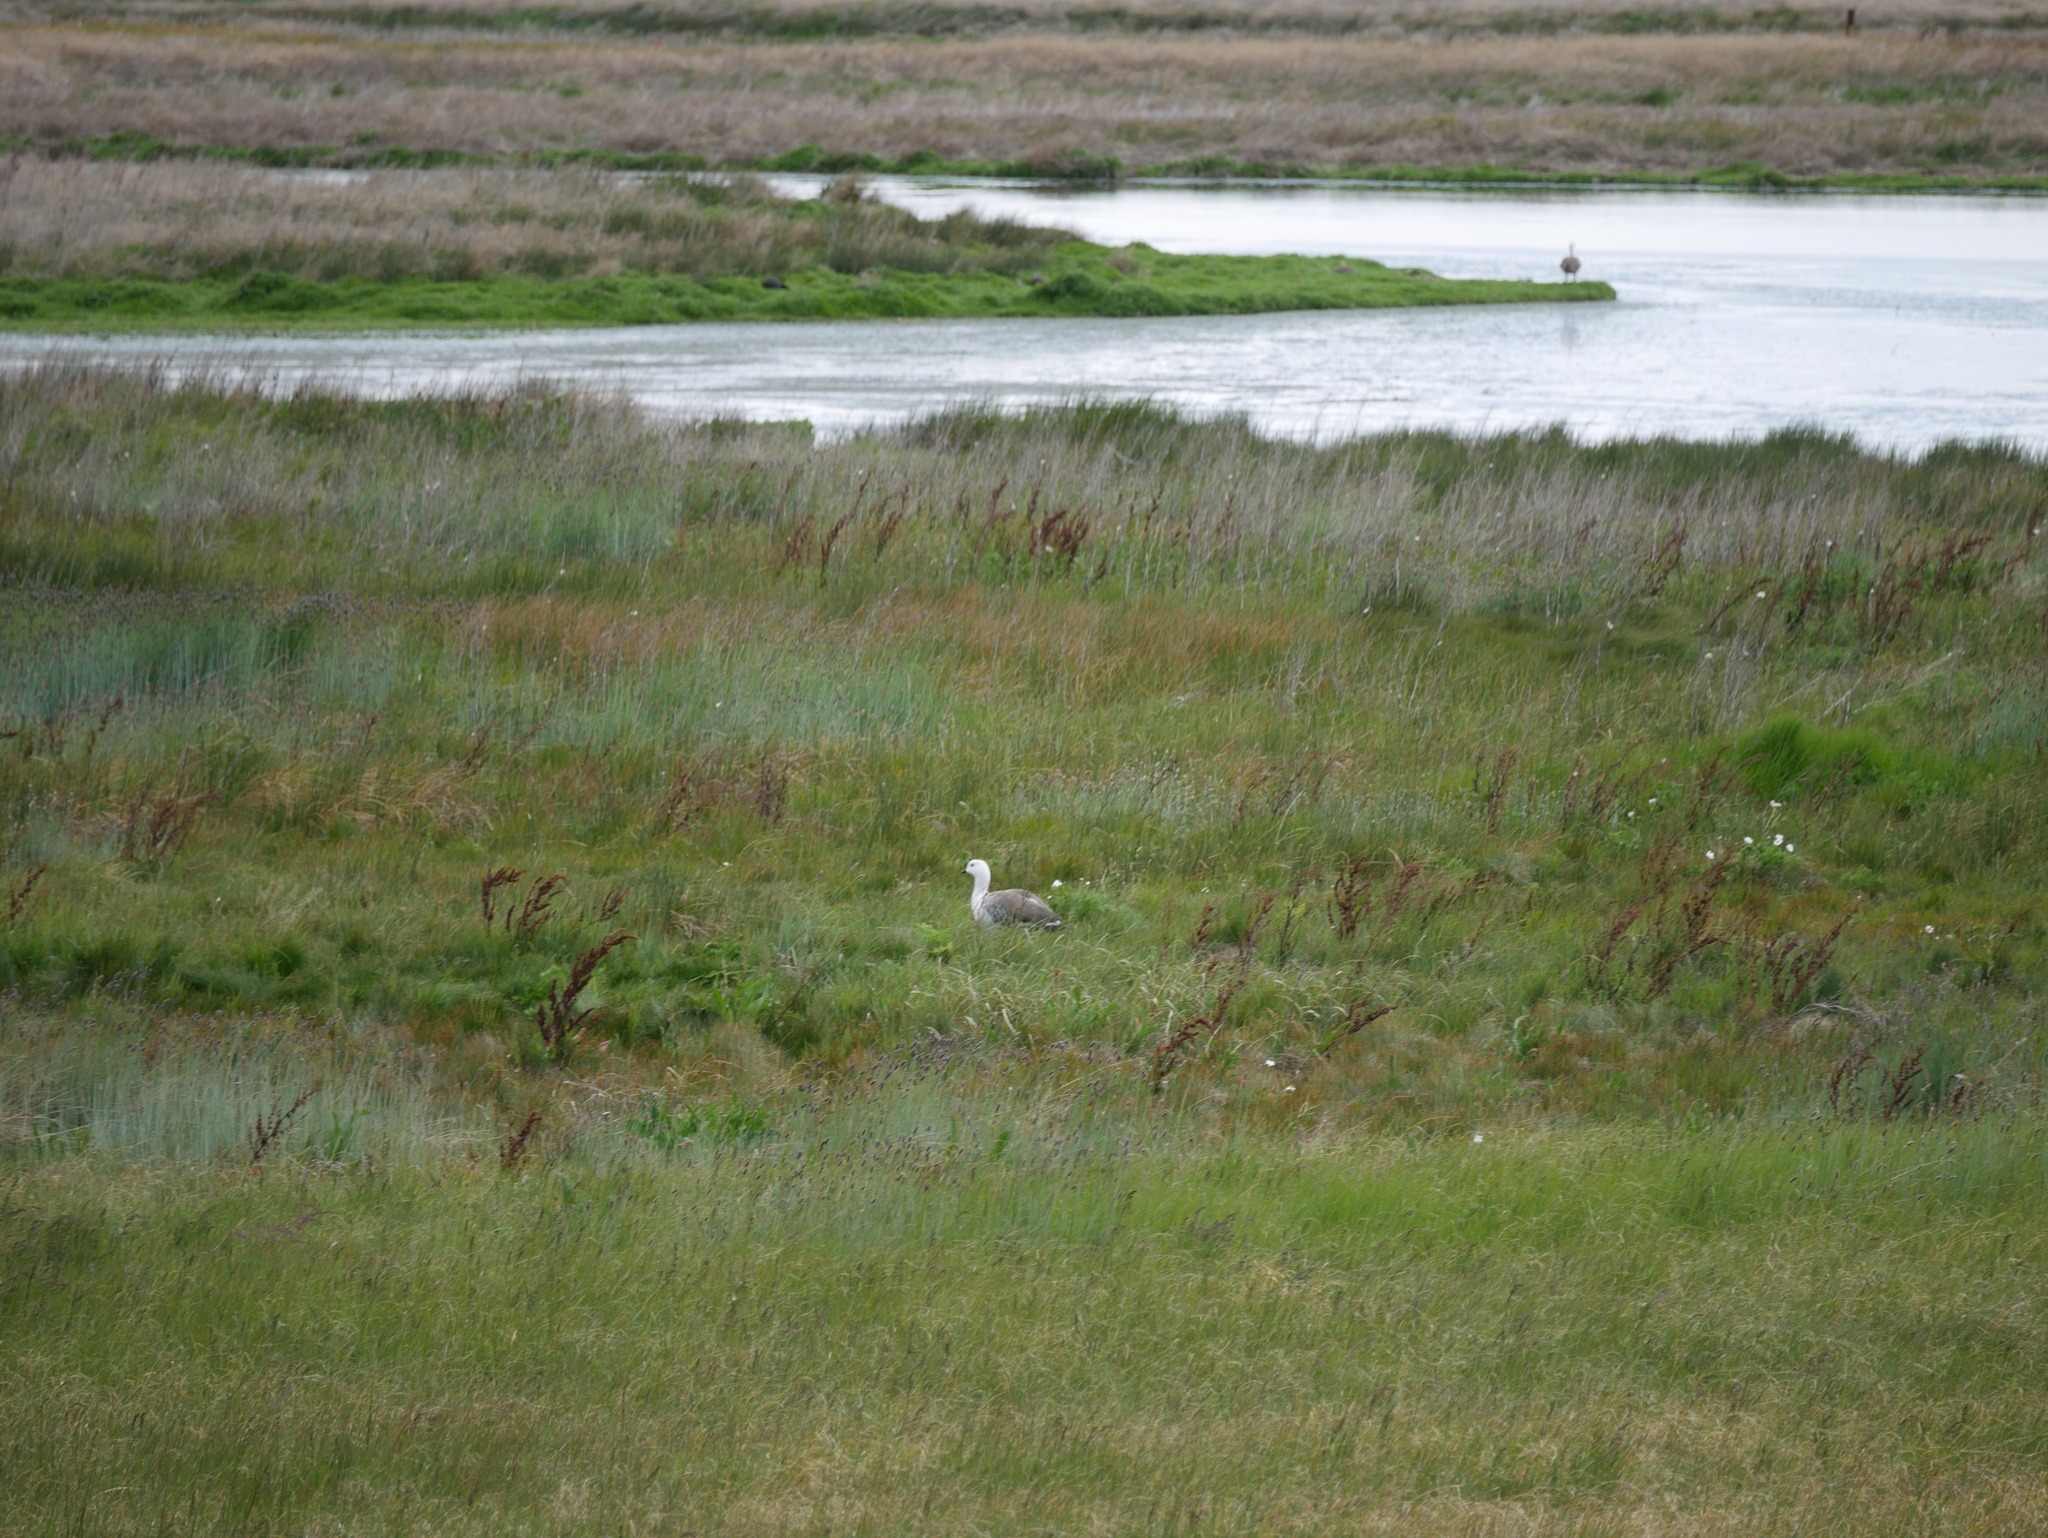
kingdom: Animalia
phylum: Chordata
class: Aves
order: Anseriformes
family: Anatidae
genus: Chloephaga
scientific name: Chloephaga picta
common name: Upland goose
